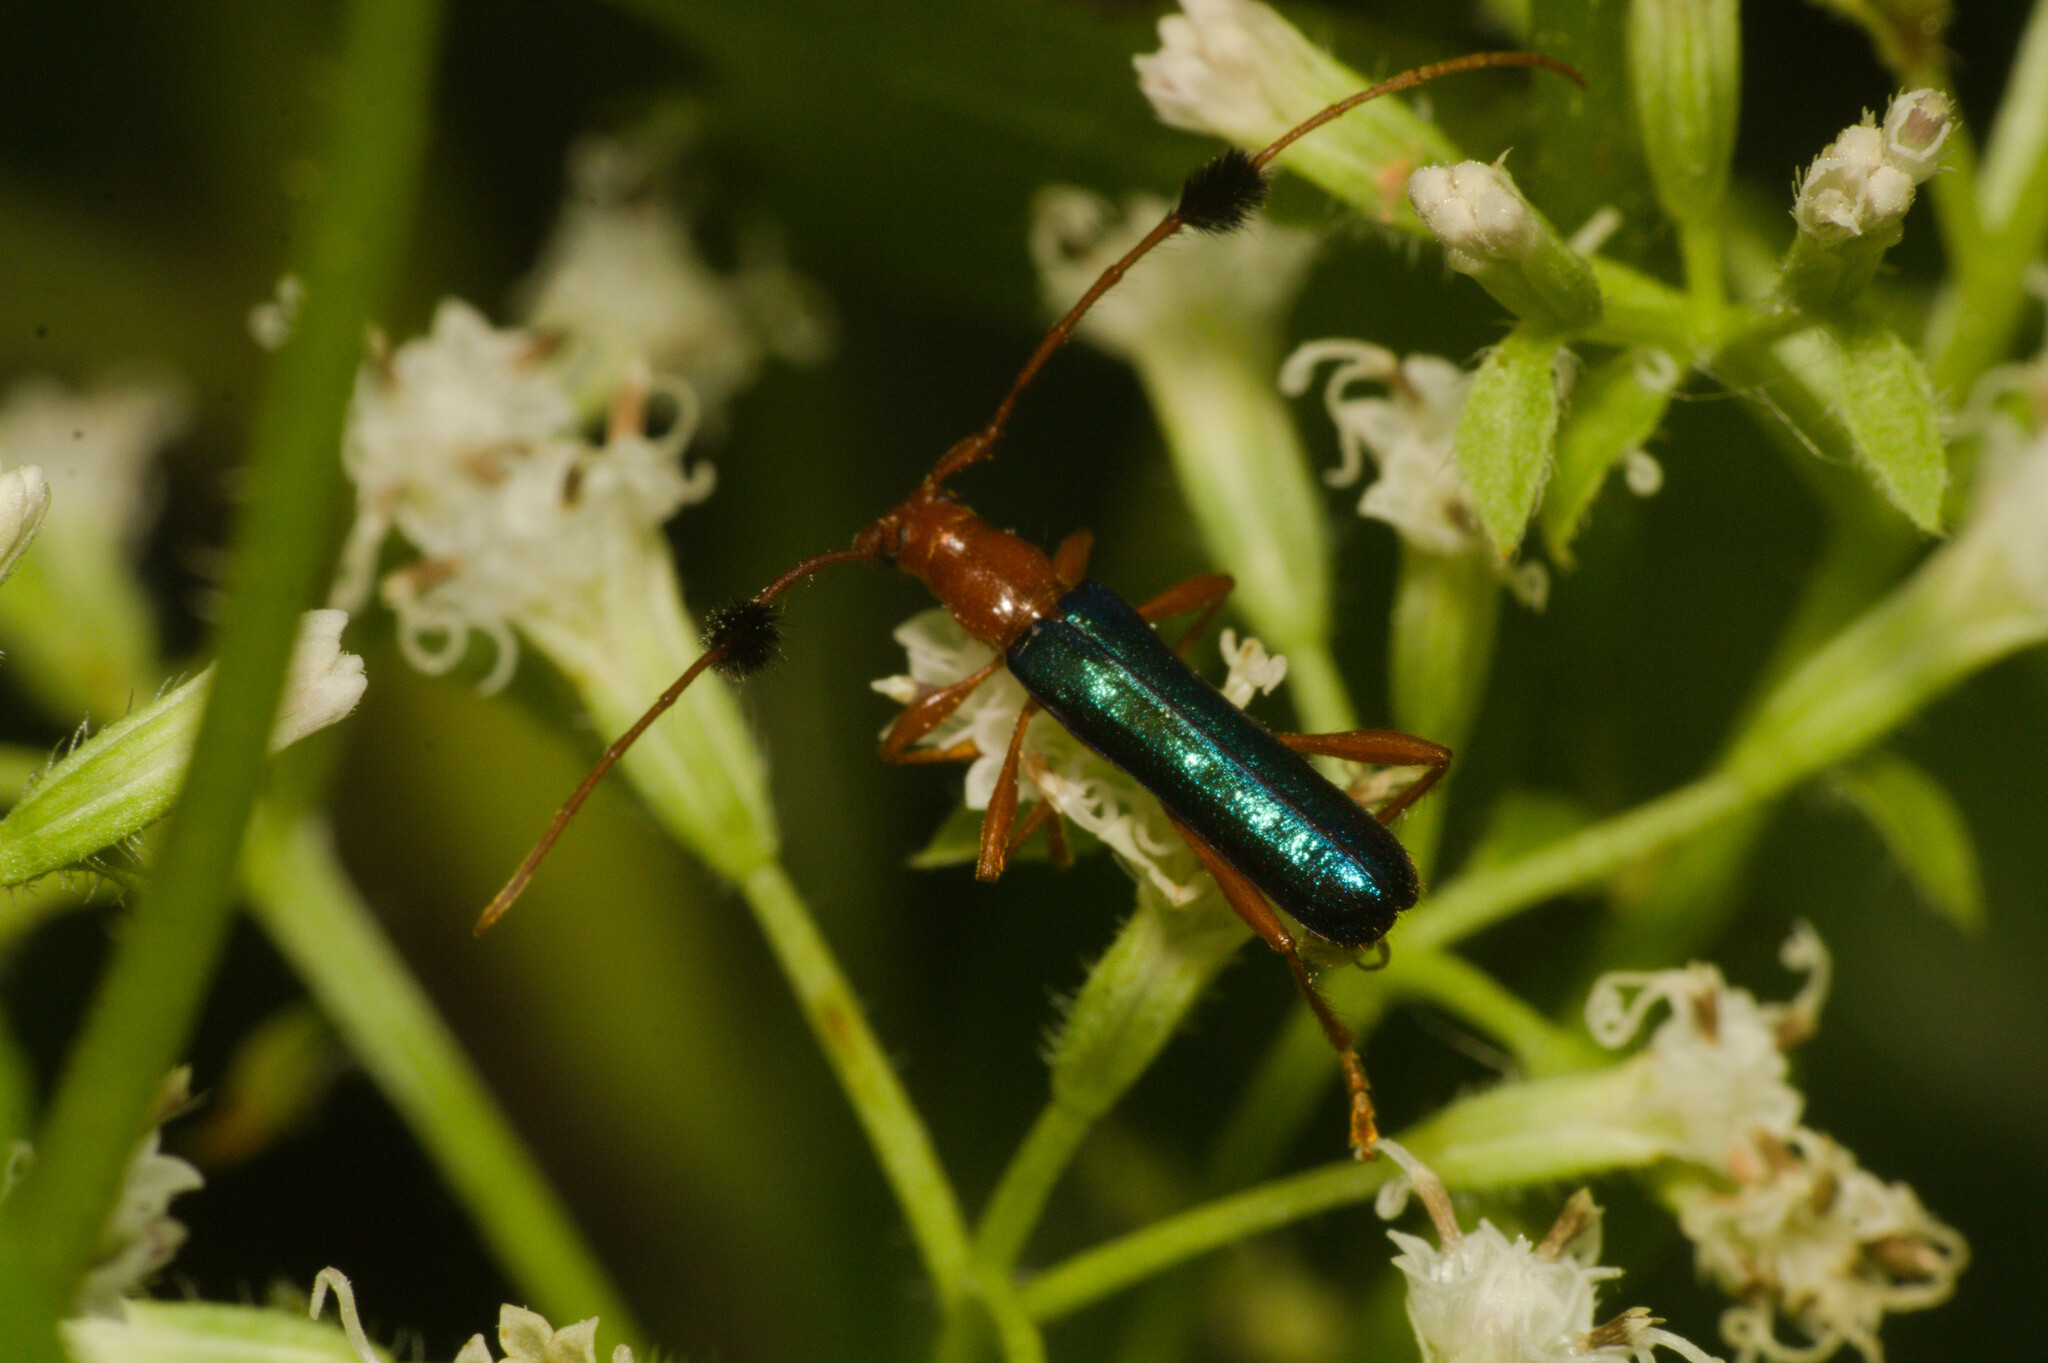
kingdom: Animalia
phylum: Arthropoda
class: Insecta
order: Coleoptera
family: Cerambycidae
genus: Paromoeocerus
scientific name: Paromoeocerus barbicornis
